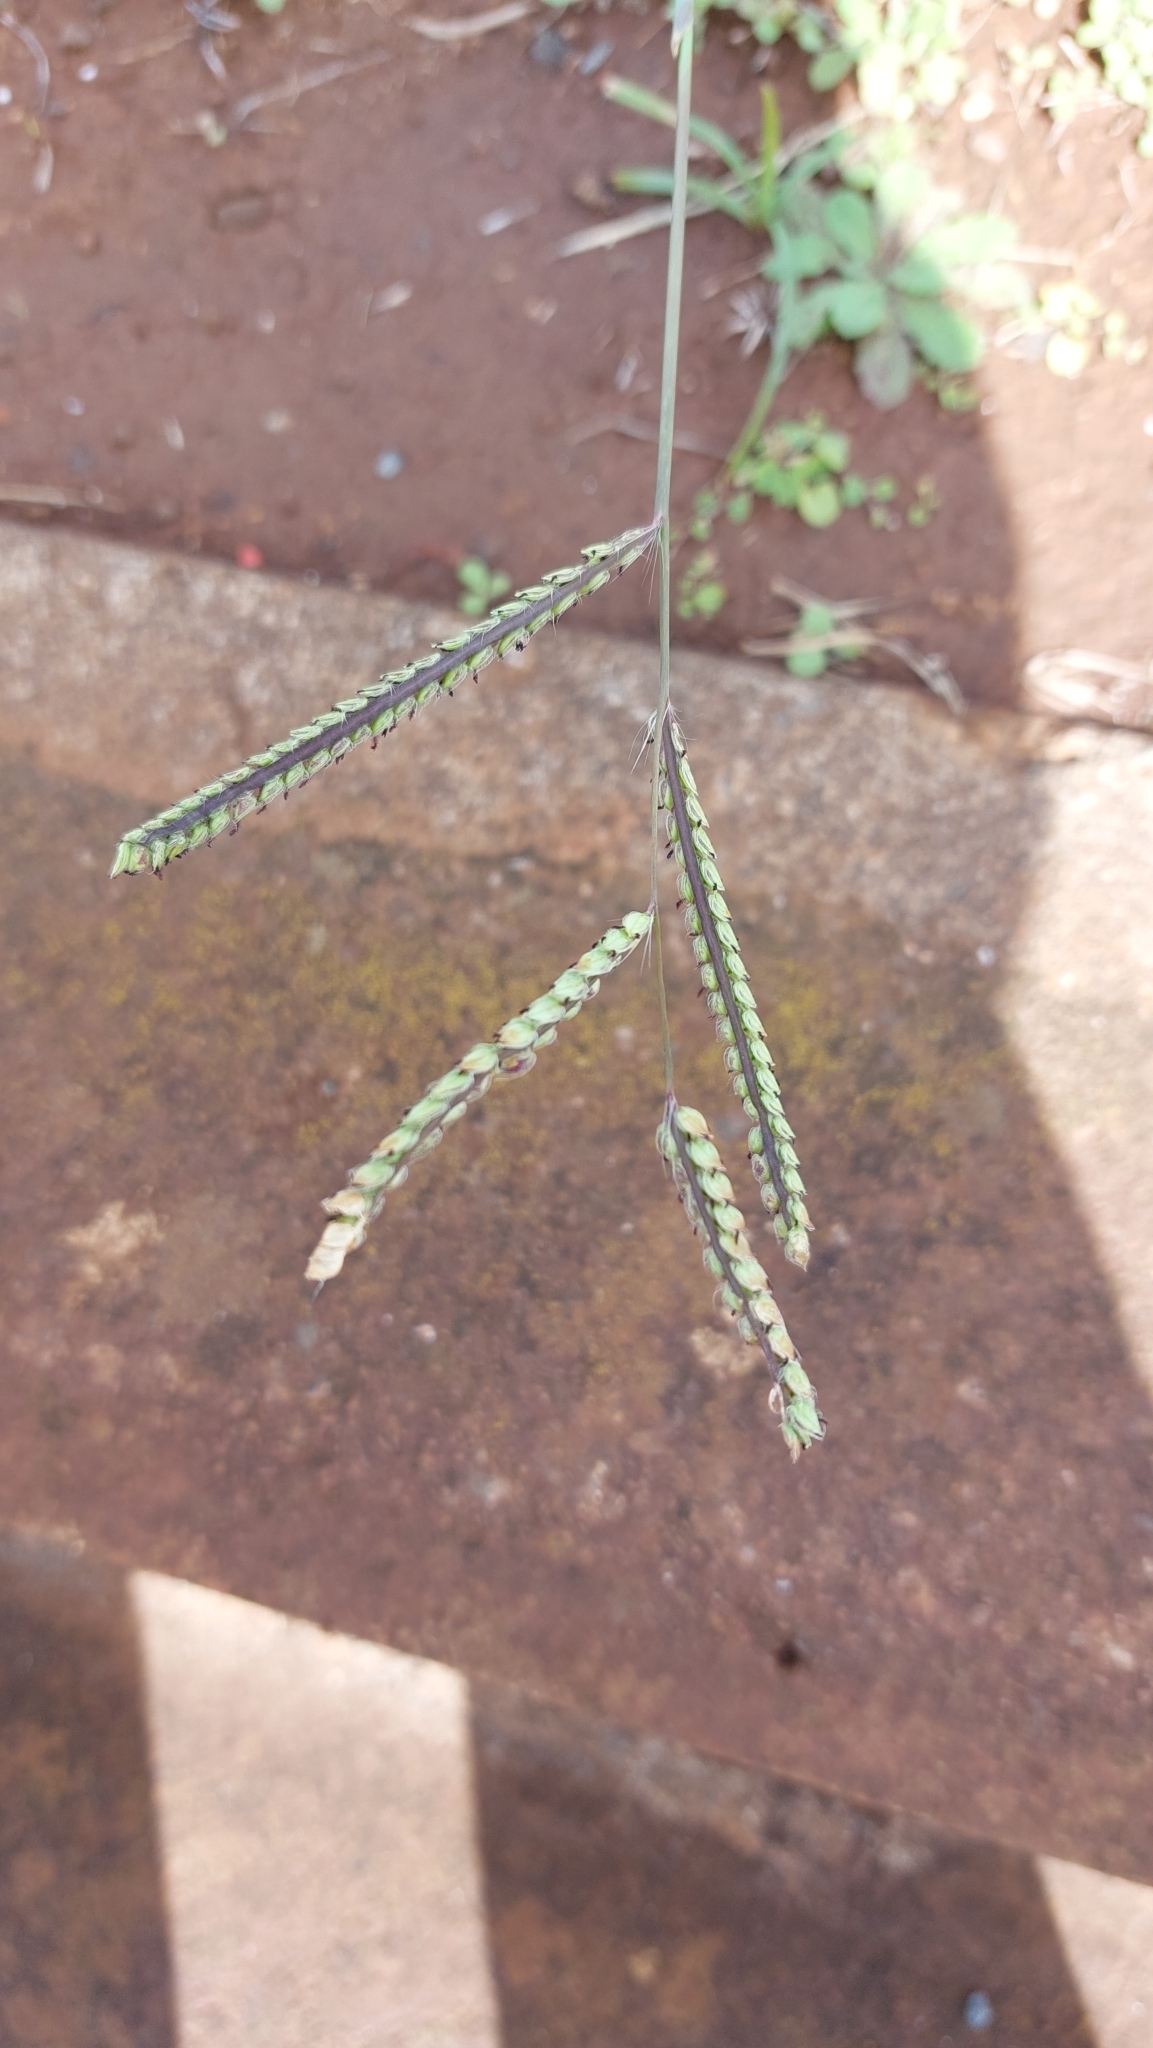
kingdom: Plantae
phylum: Tracheophyta
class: Liliopsida
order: Poales
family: Poaceae
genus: Paspalum
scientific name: Paspalum dilatatum
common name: Dallisgrass
